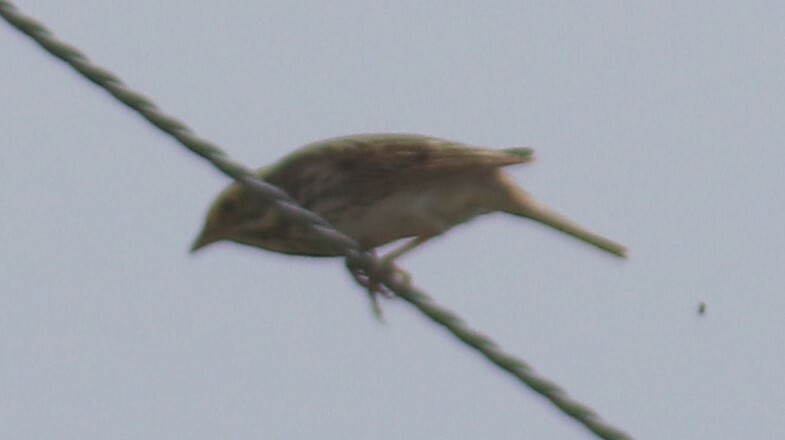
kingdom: Animalia
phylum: Chordata
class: Aves
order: Passeriformes
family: Passerellidae
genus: Passerculus
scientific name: Passerculus sandwichensis
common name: Savannah sparrow
